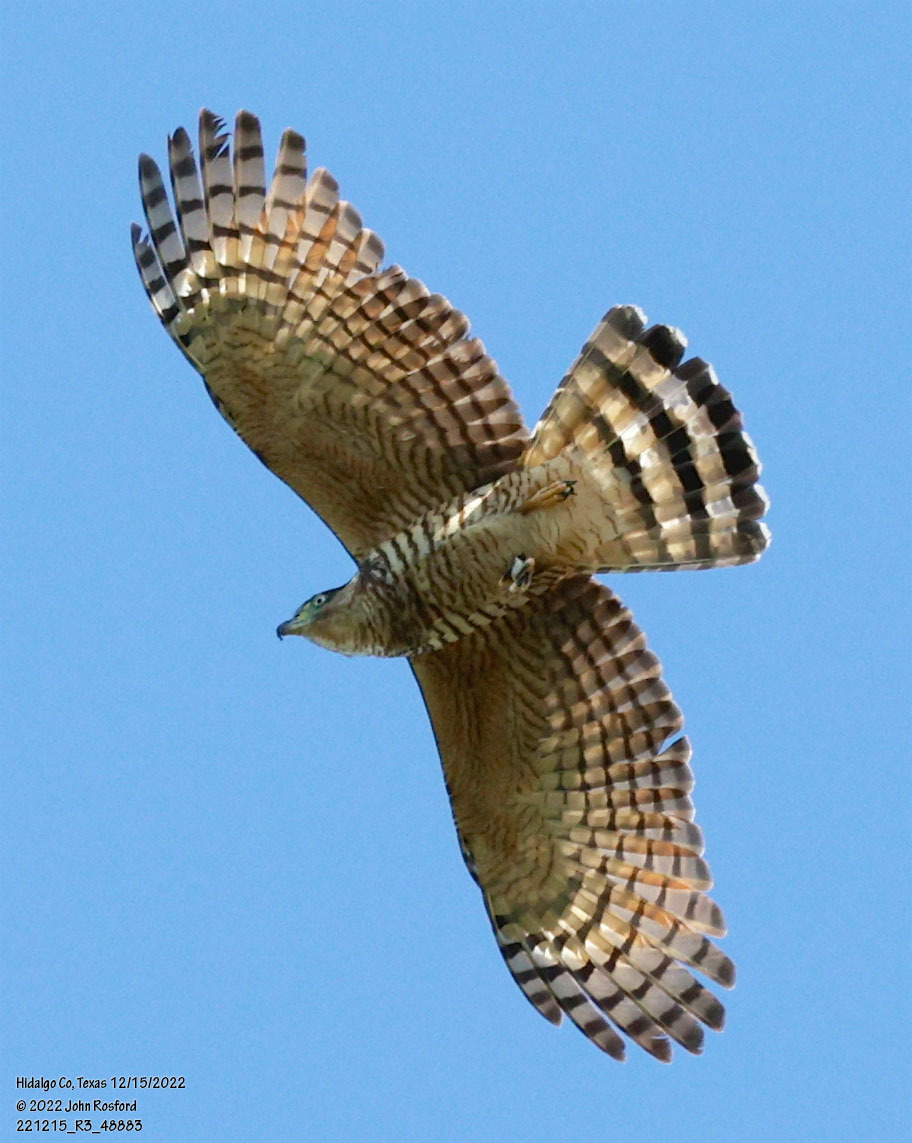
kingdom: Animalia
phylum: Chordata
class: Aves
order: Accipitriformes
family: Accipitridae
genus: Chondrohierax
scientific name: Chondrohierax uncinatus
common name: Hook-billed kite
